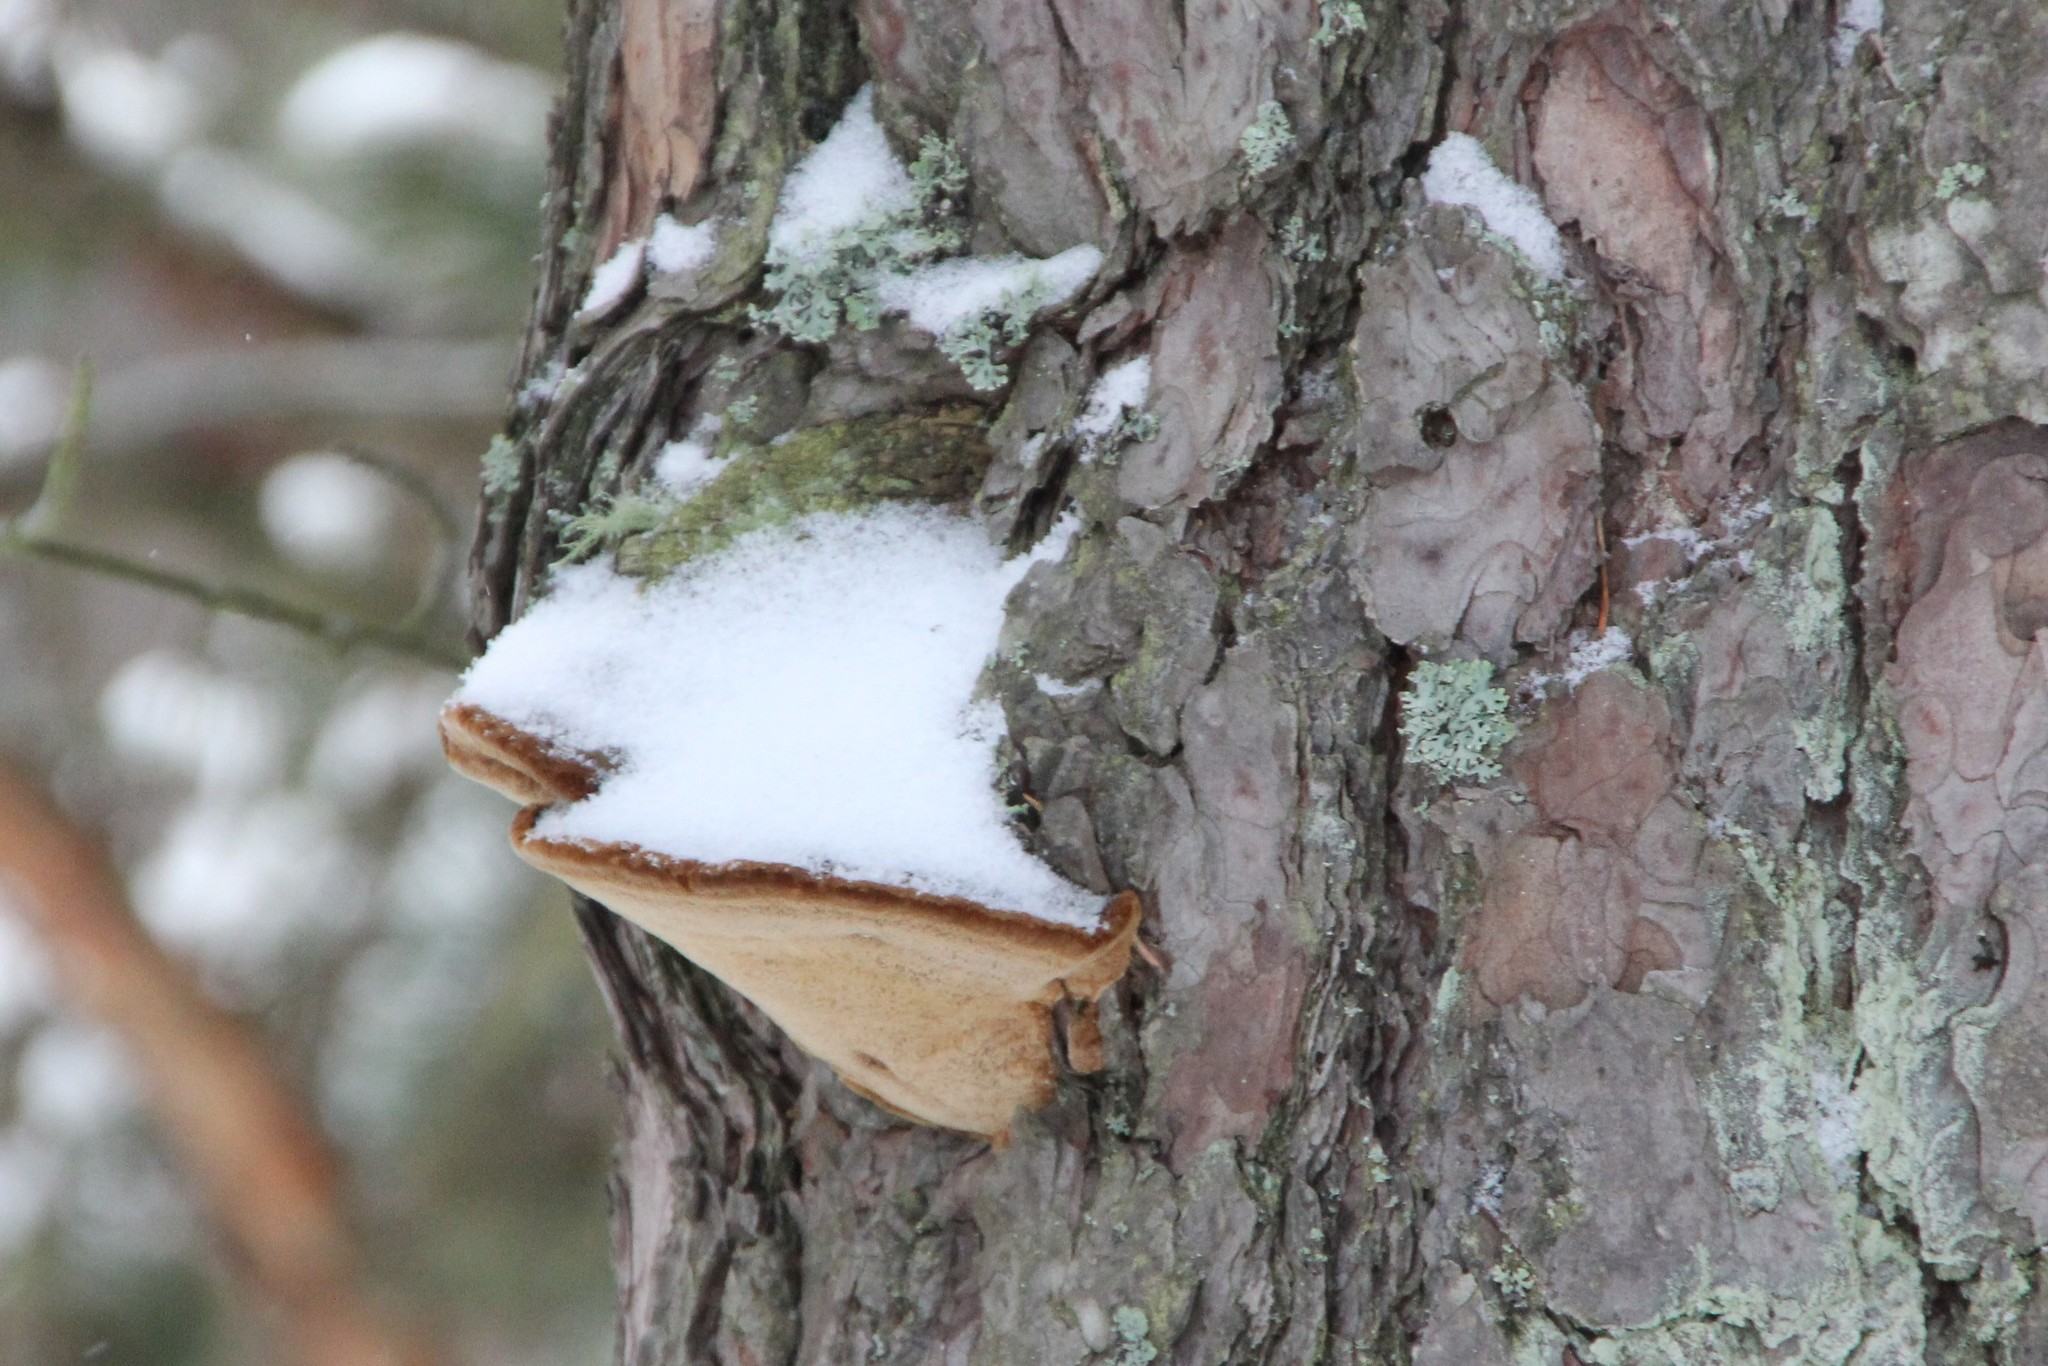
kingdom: Fungi
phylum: Basidiomycota
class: Agaricomycetes
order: Hymenochaetales
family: Hymenochaetaceae
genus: Porodaedalea
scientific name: Porodaedalea pini
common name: Pine bracket
